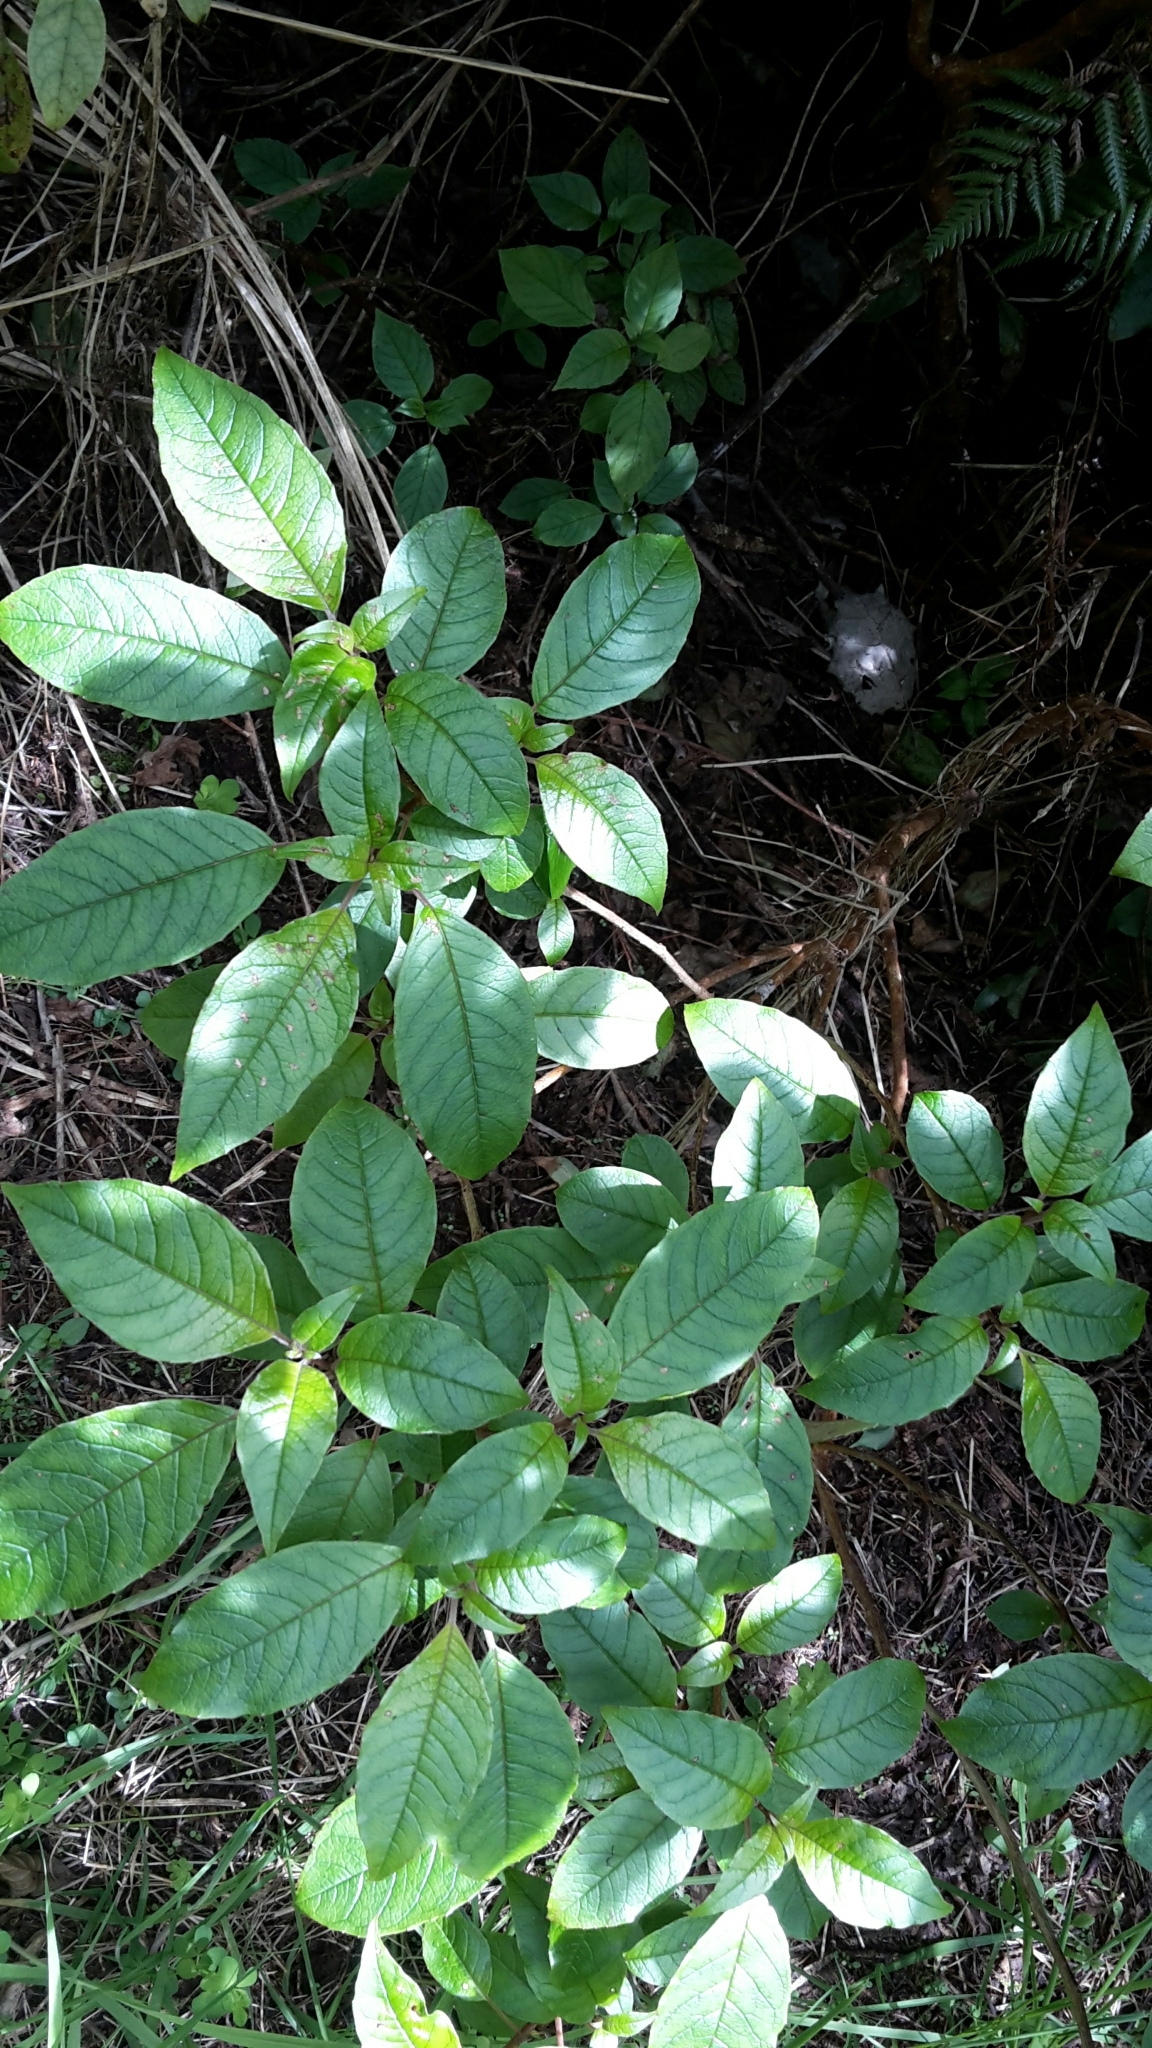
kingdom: Plantae
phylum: Tracheophyta
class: Magnoliopsida
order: Myrtales
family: Onagraceae
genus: Fuchsia
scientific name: Fuchsia excorticata
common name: Tree fuchsia
